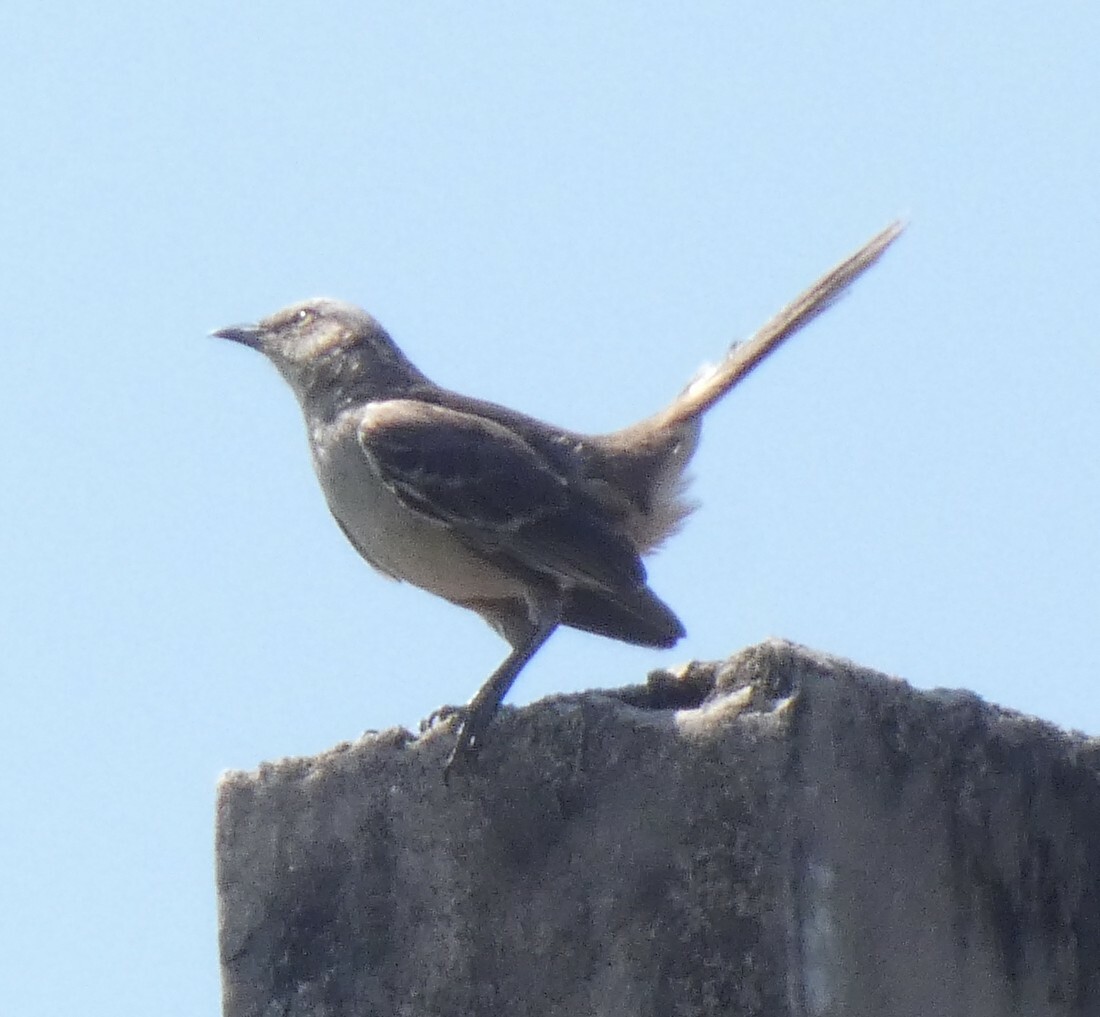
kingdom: Animalia
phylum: Chordata
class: Aves
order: Passeriformes
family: Mimidae
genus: Mimus
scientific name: Mimus saturninus
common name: Chalk-browed mockingbird
